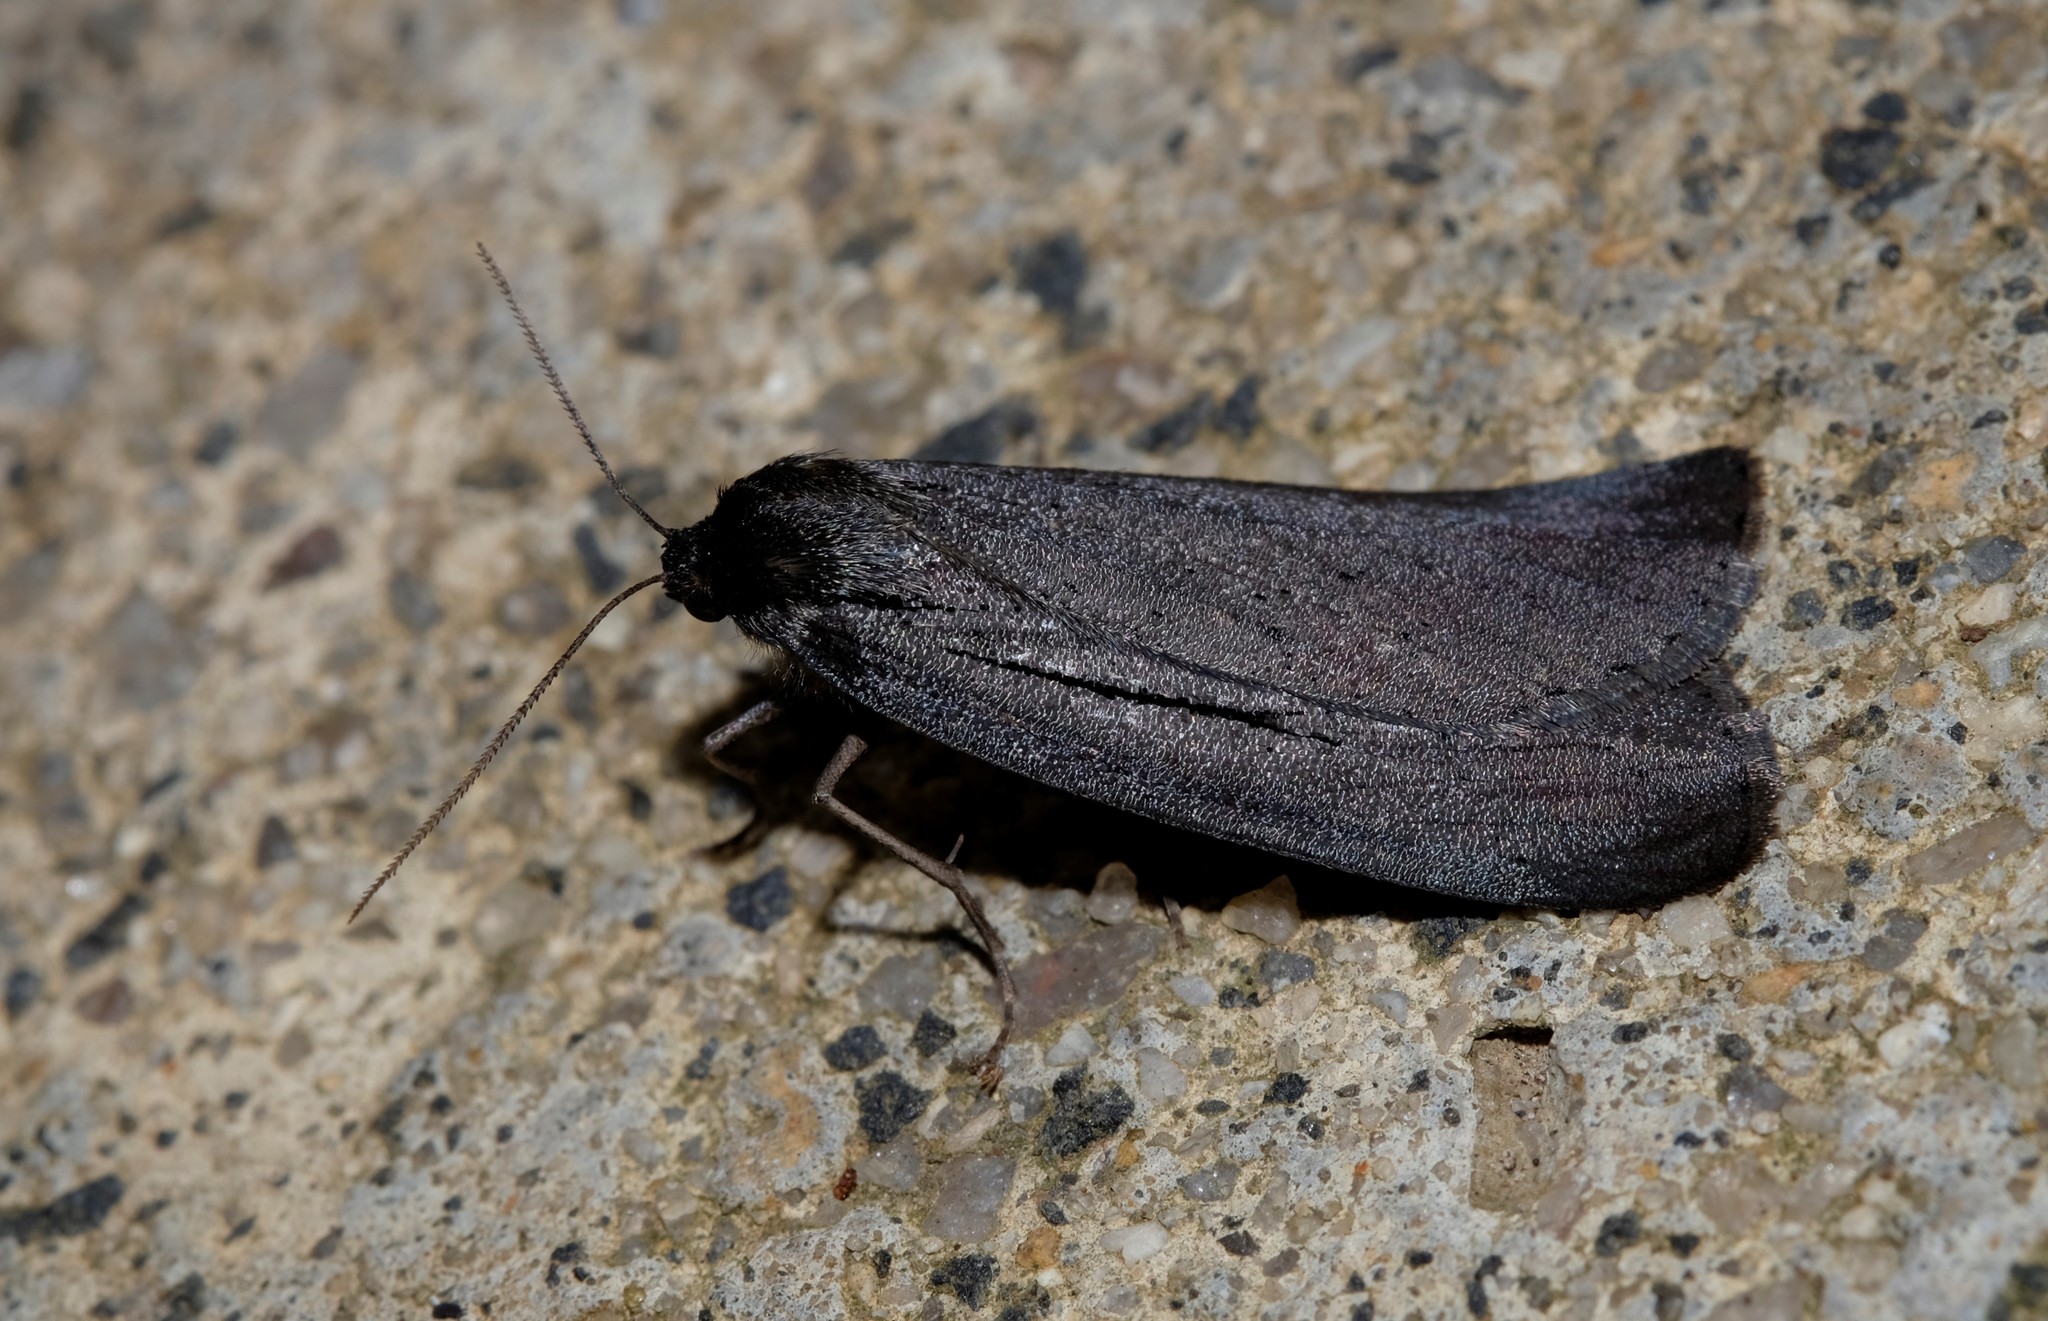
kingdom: Animalia
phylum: Arthropoda
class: Insecta
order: Lepidoptera
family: Geometridae
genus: Chlenias
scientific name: Chlenias seminigra
